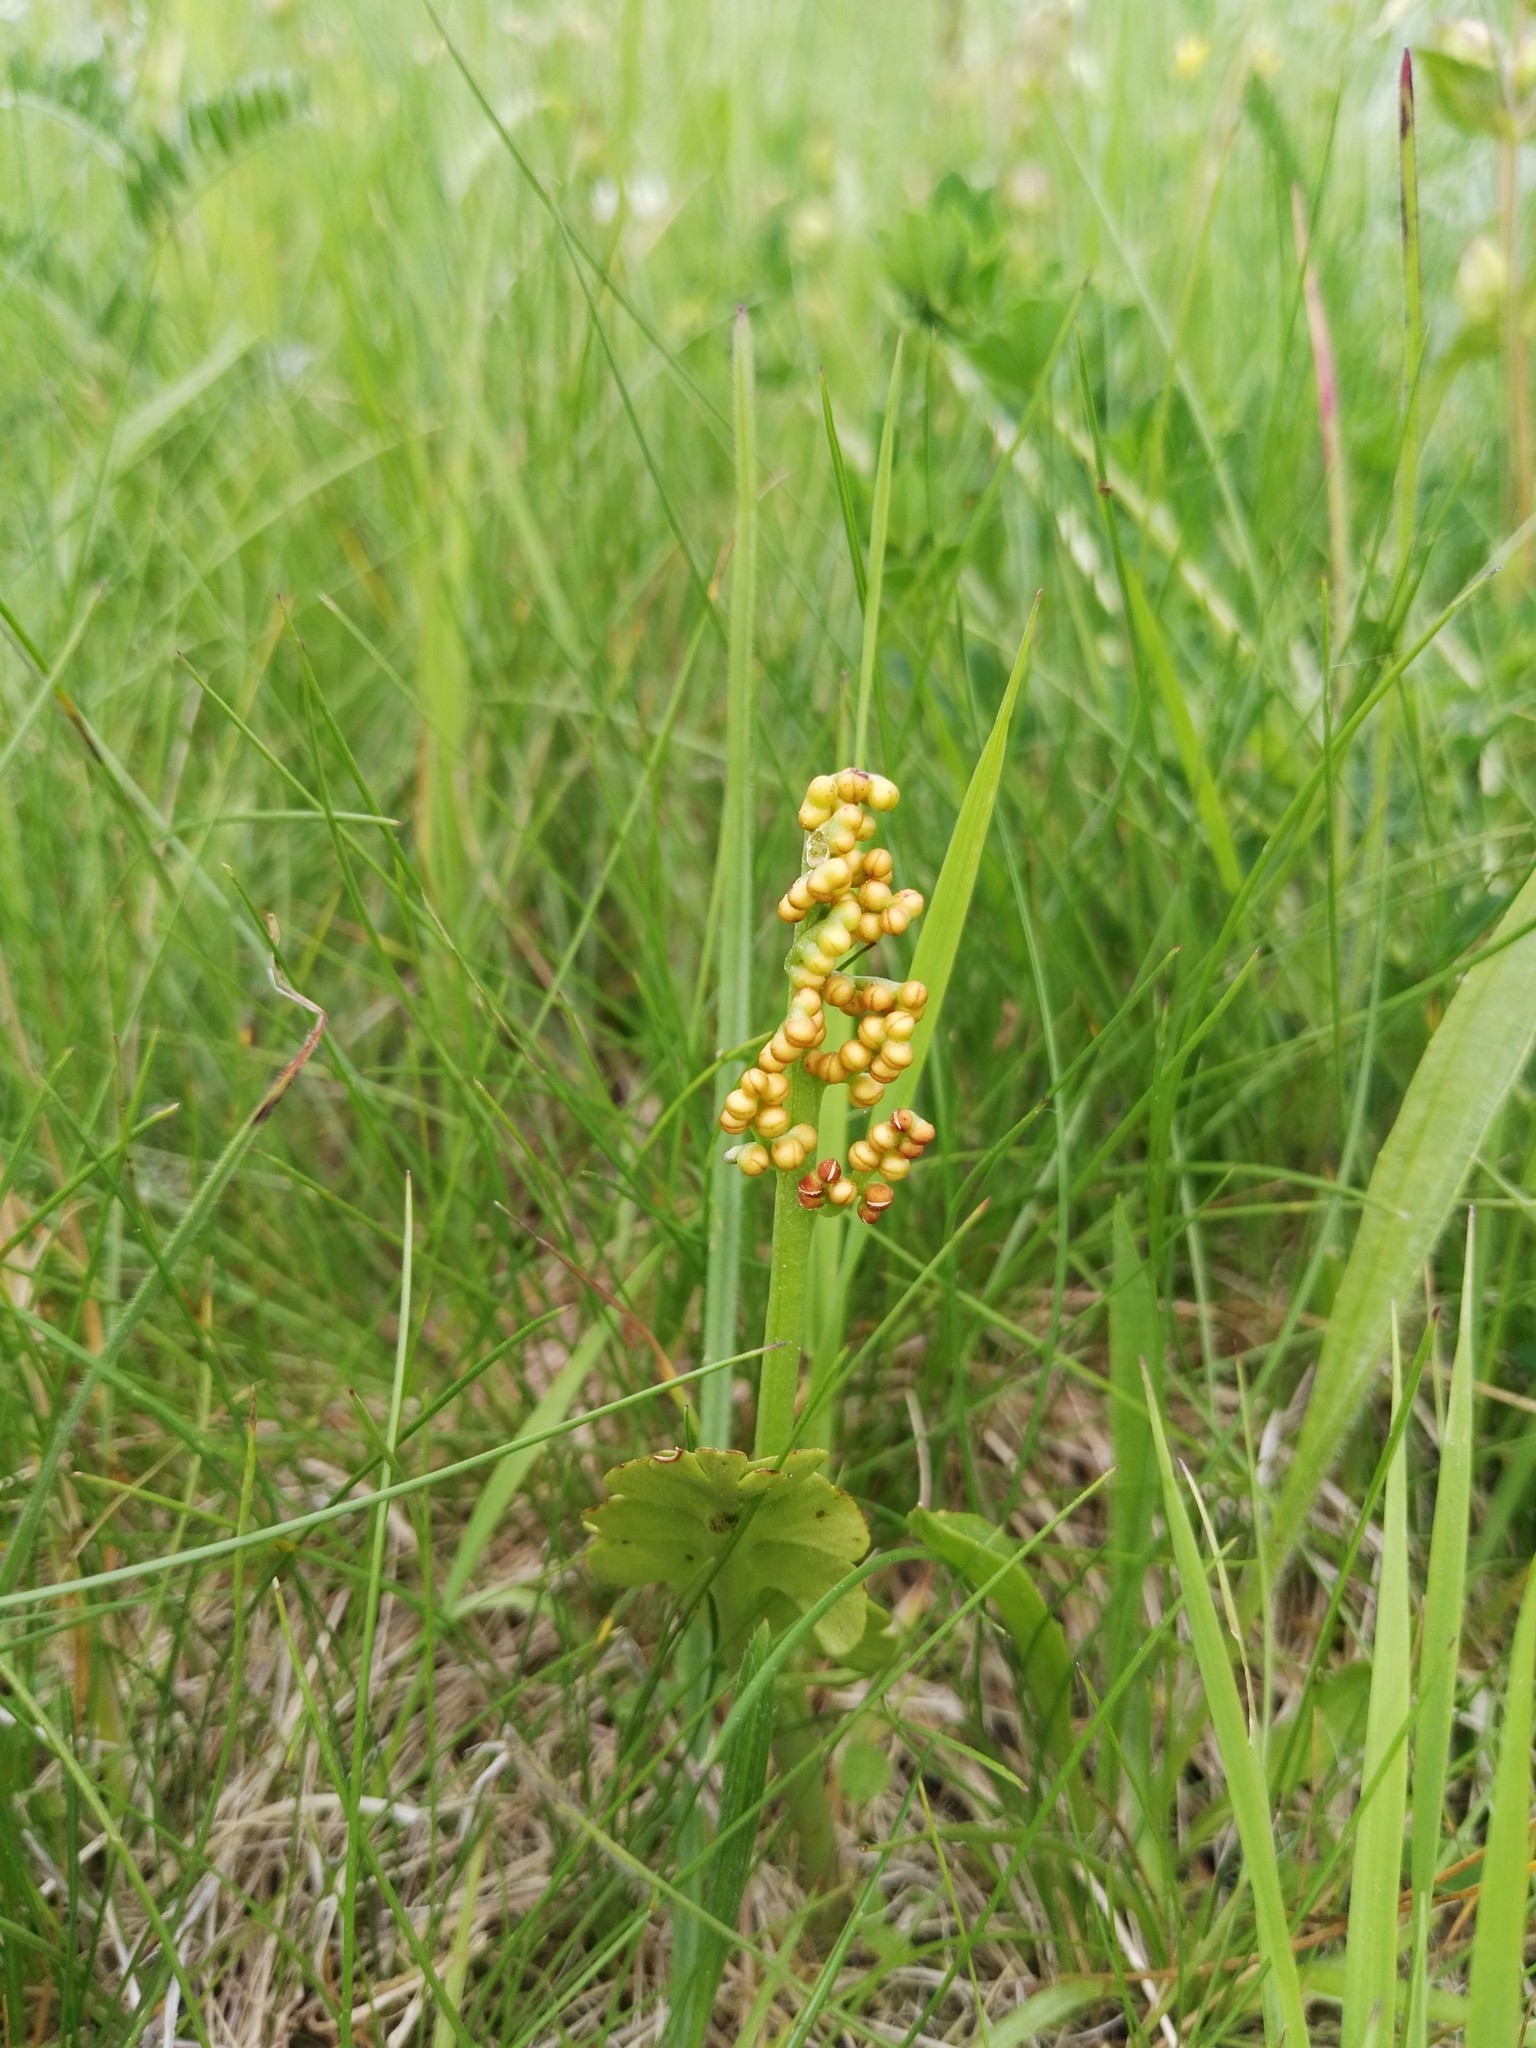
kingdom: Plantae
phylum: Tracheophyta
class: Polypodiopsida
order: Ophioglossales
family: Ophioglossaceae
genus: Botrychium
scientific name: Botrychium lunaria
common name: Moonwort
